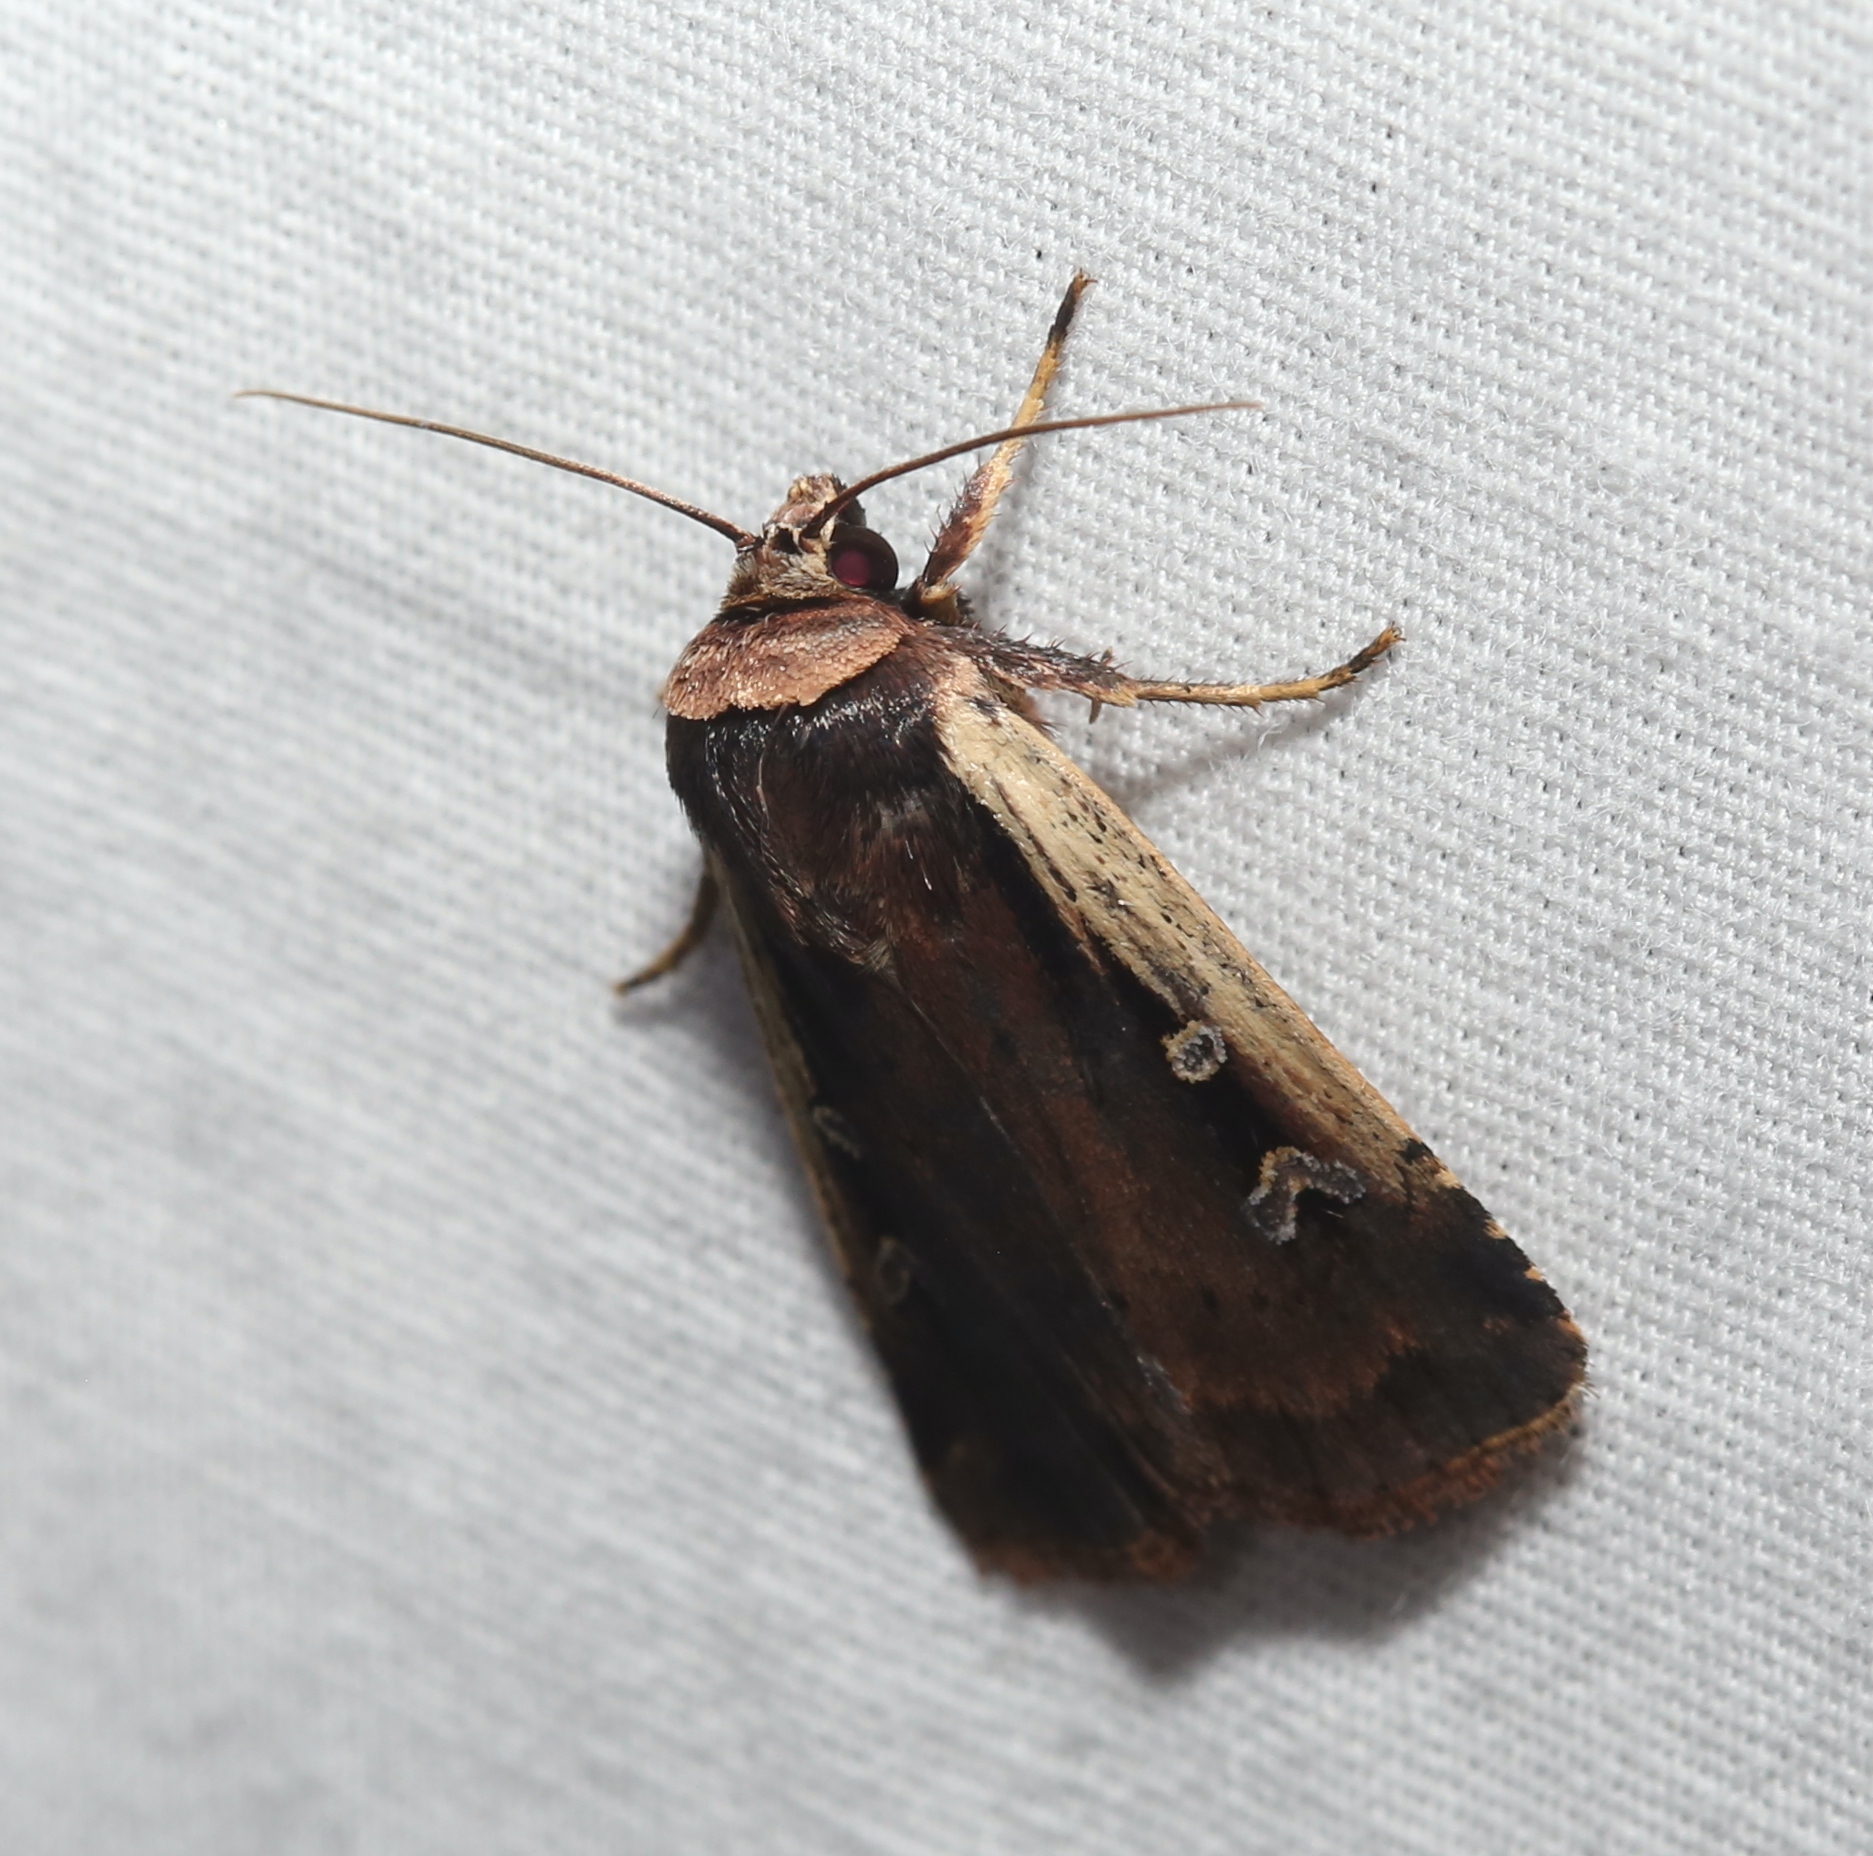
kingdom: Animalia
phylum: Arthropoda
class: Insecta
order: Lepidoptera
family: Noctuidae
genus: Ochropleura
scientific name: Ochropleura implecta
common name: Flame-shouldered dart
